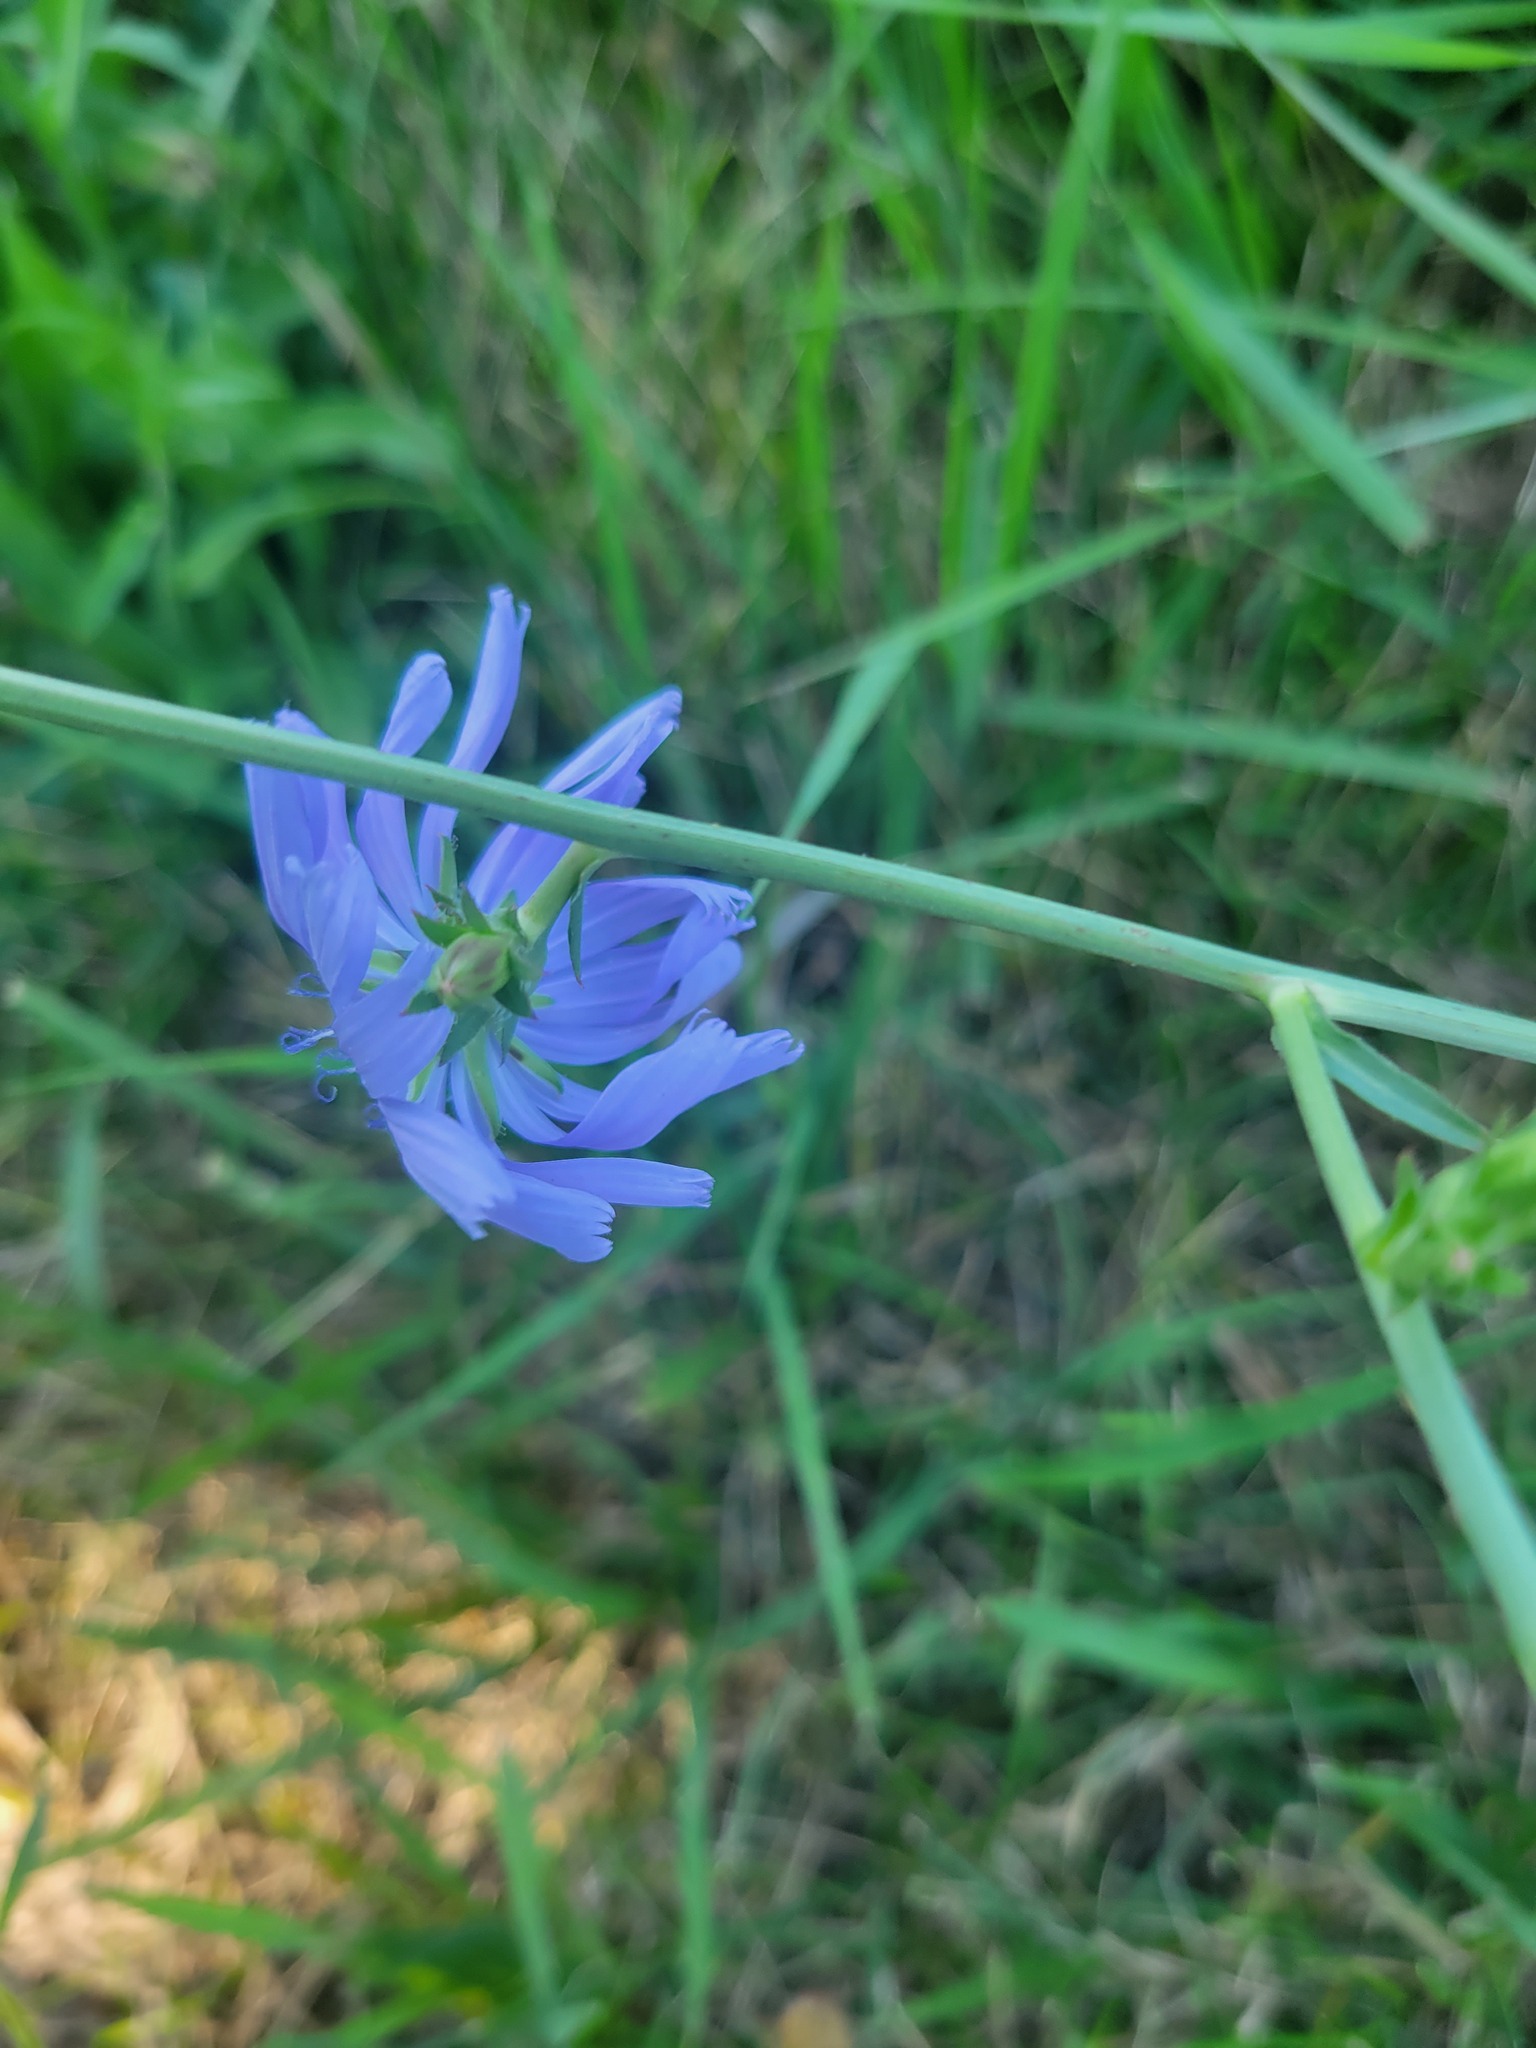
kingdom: Plantae
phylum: Tracheophyta
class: Magnoliopsida
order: Asterales
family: Asteraceae
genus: Cichorium
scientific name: Cichorium intybus
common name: Chicory
